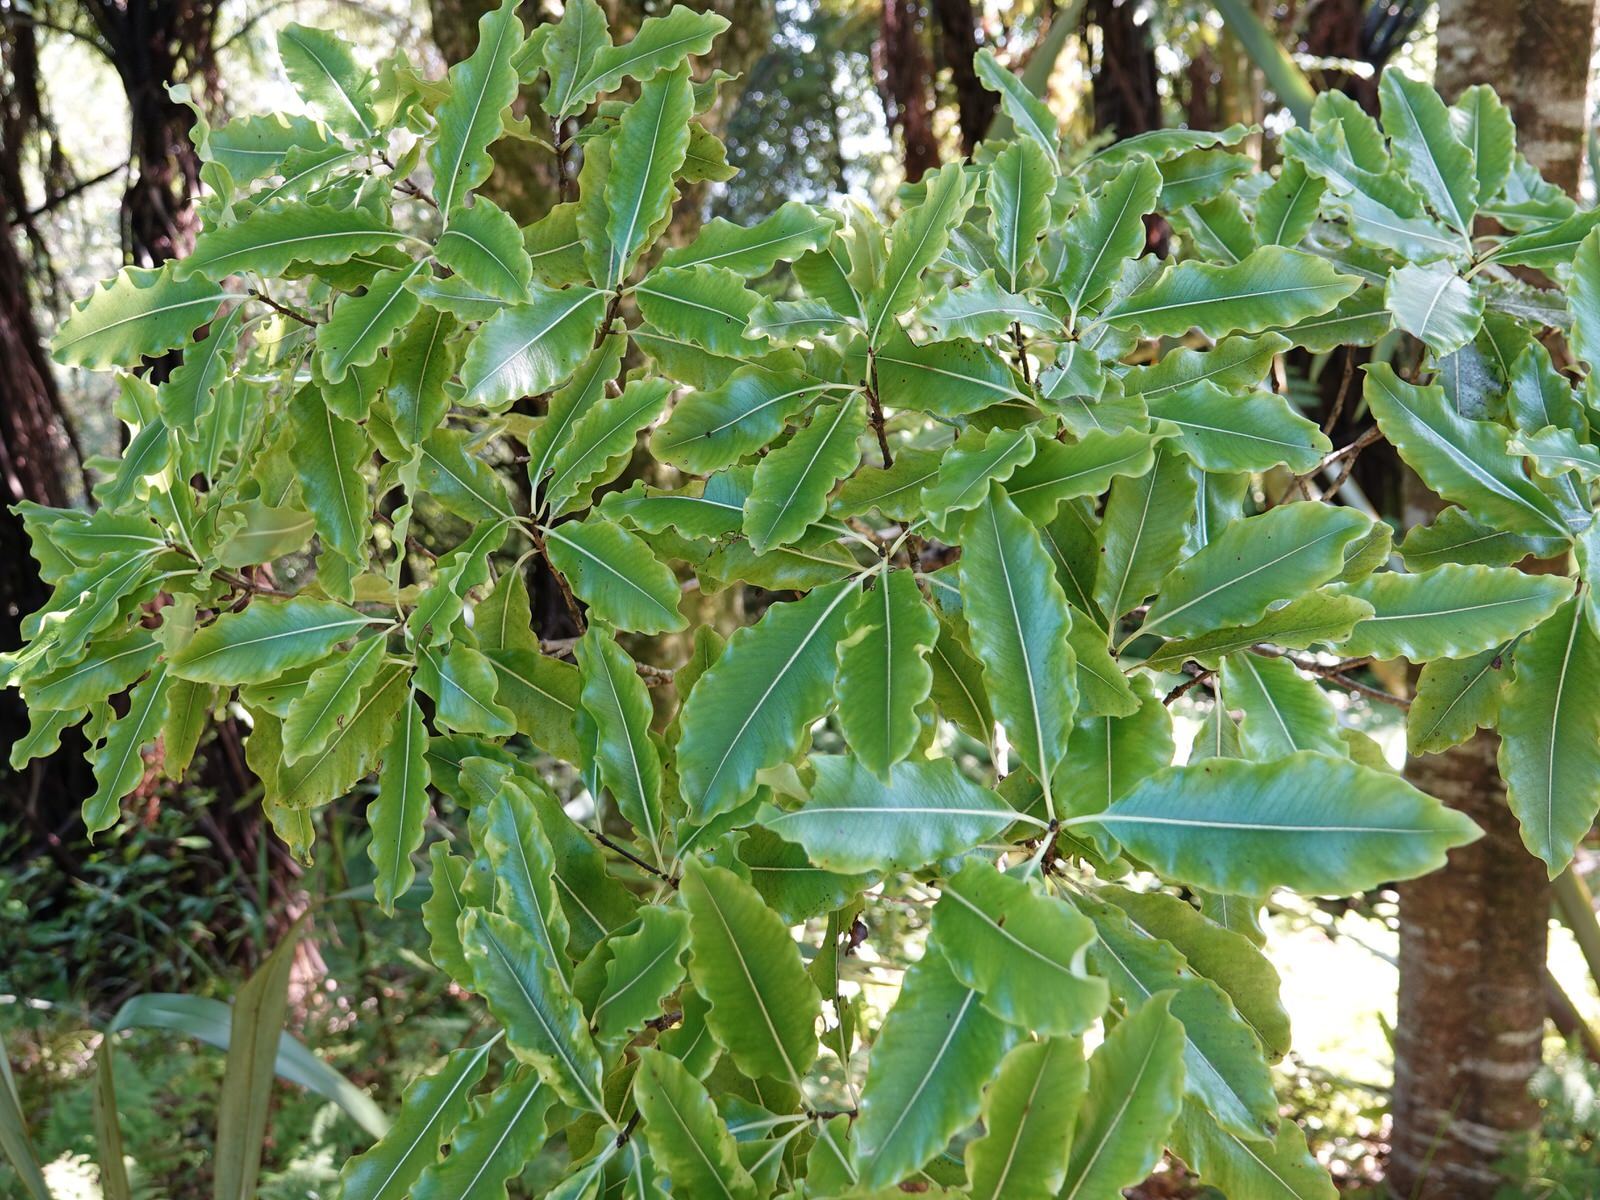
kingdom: Plantae
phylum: Tracheophyta
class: Magnoliopsida
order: Apiales
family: Pittosporaceae
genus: Pittosporum
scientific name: Pittosporum eugenioides
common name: Lemonwood
